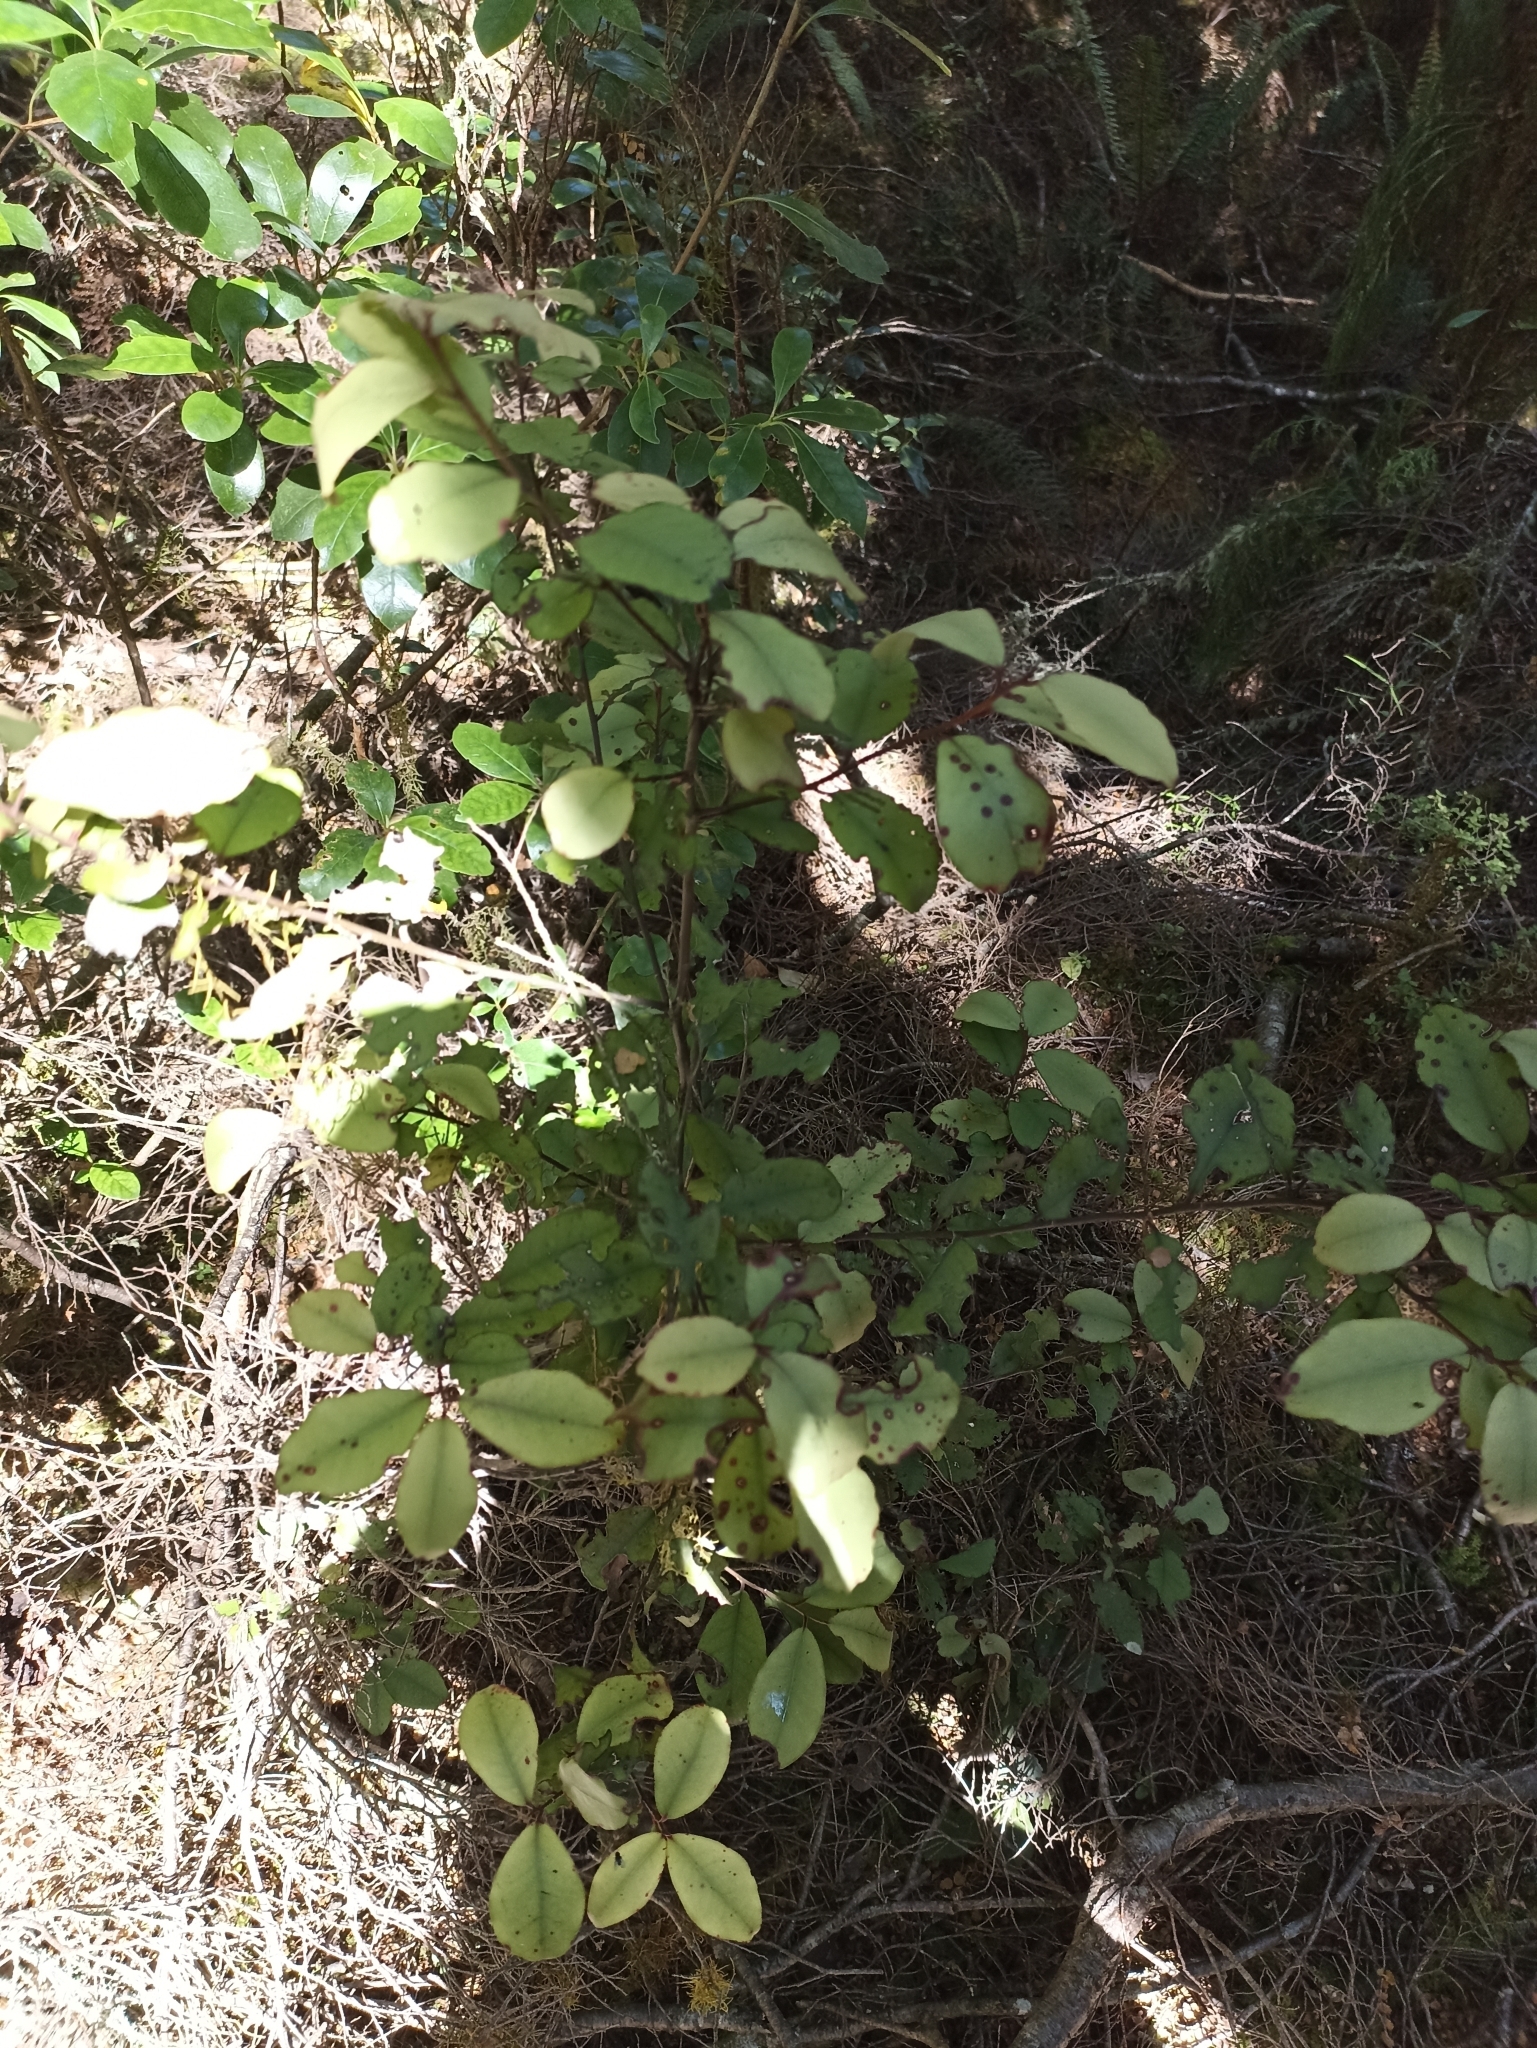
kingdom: Plantae
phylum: Tracheophyta
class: Magnoliopsida
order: Canellales
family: Winteraceae
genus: Pseudowintera
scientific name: Pseudowintera colorata
